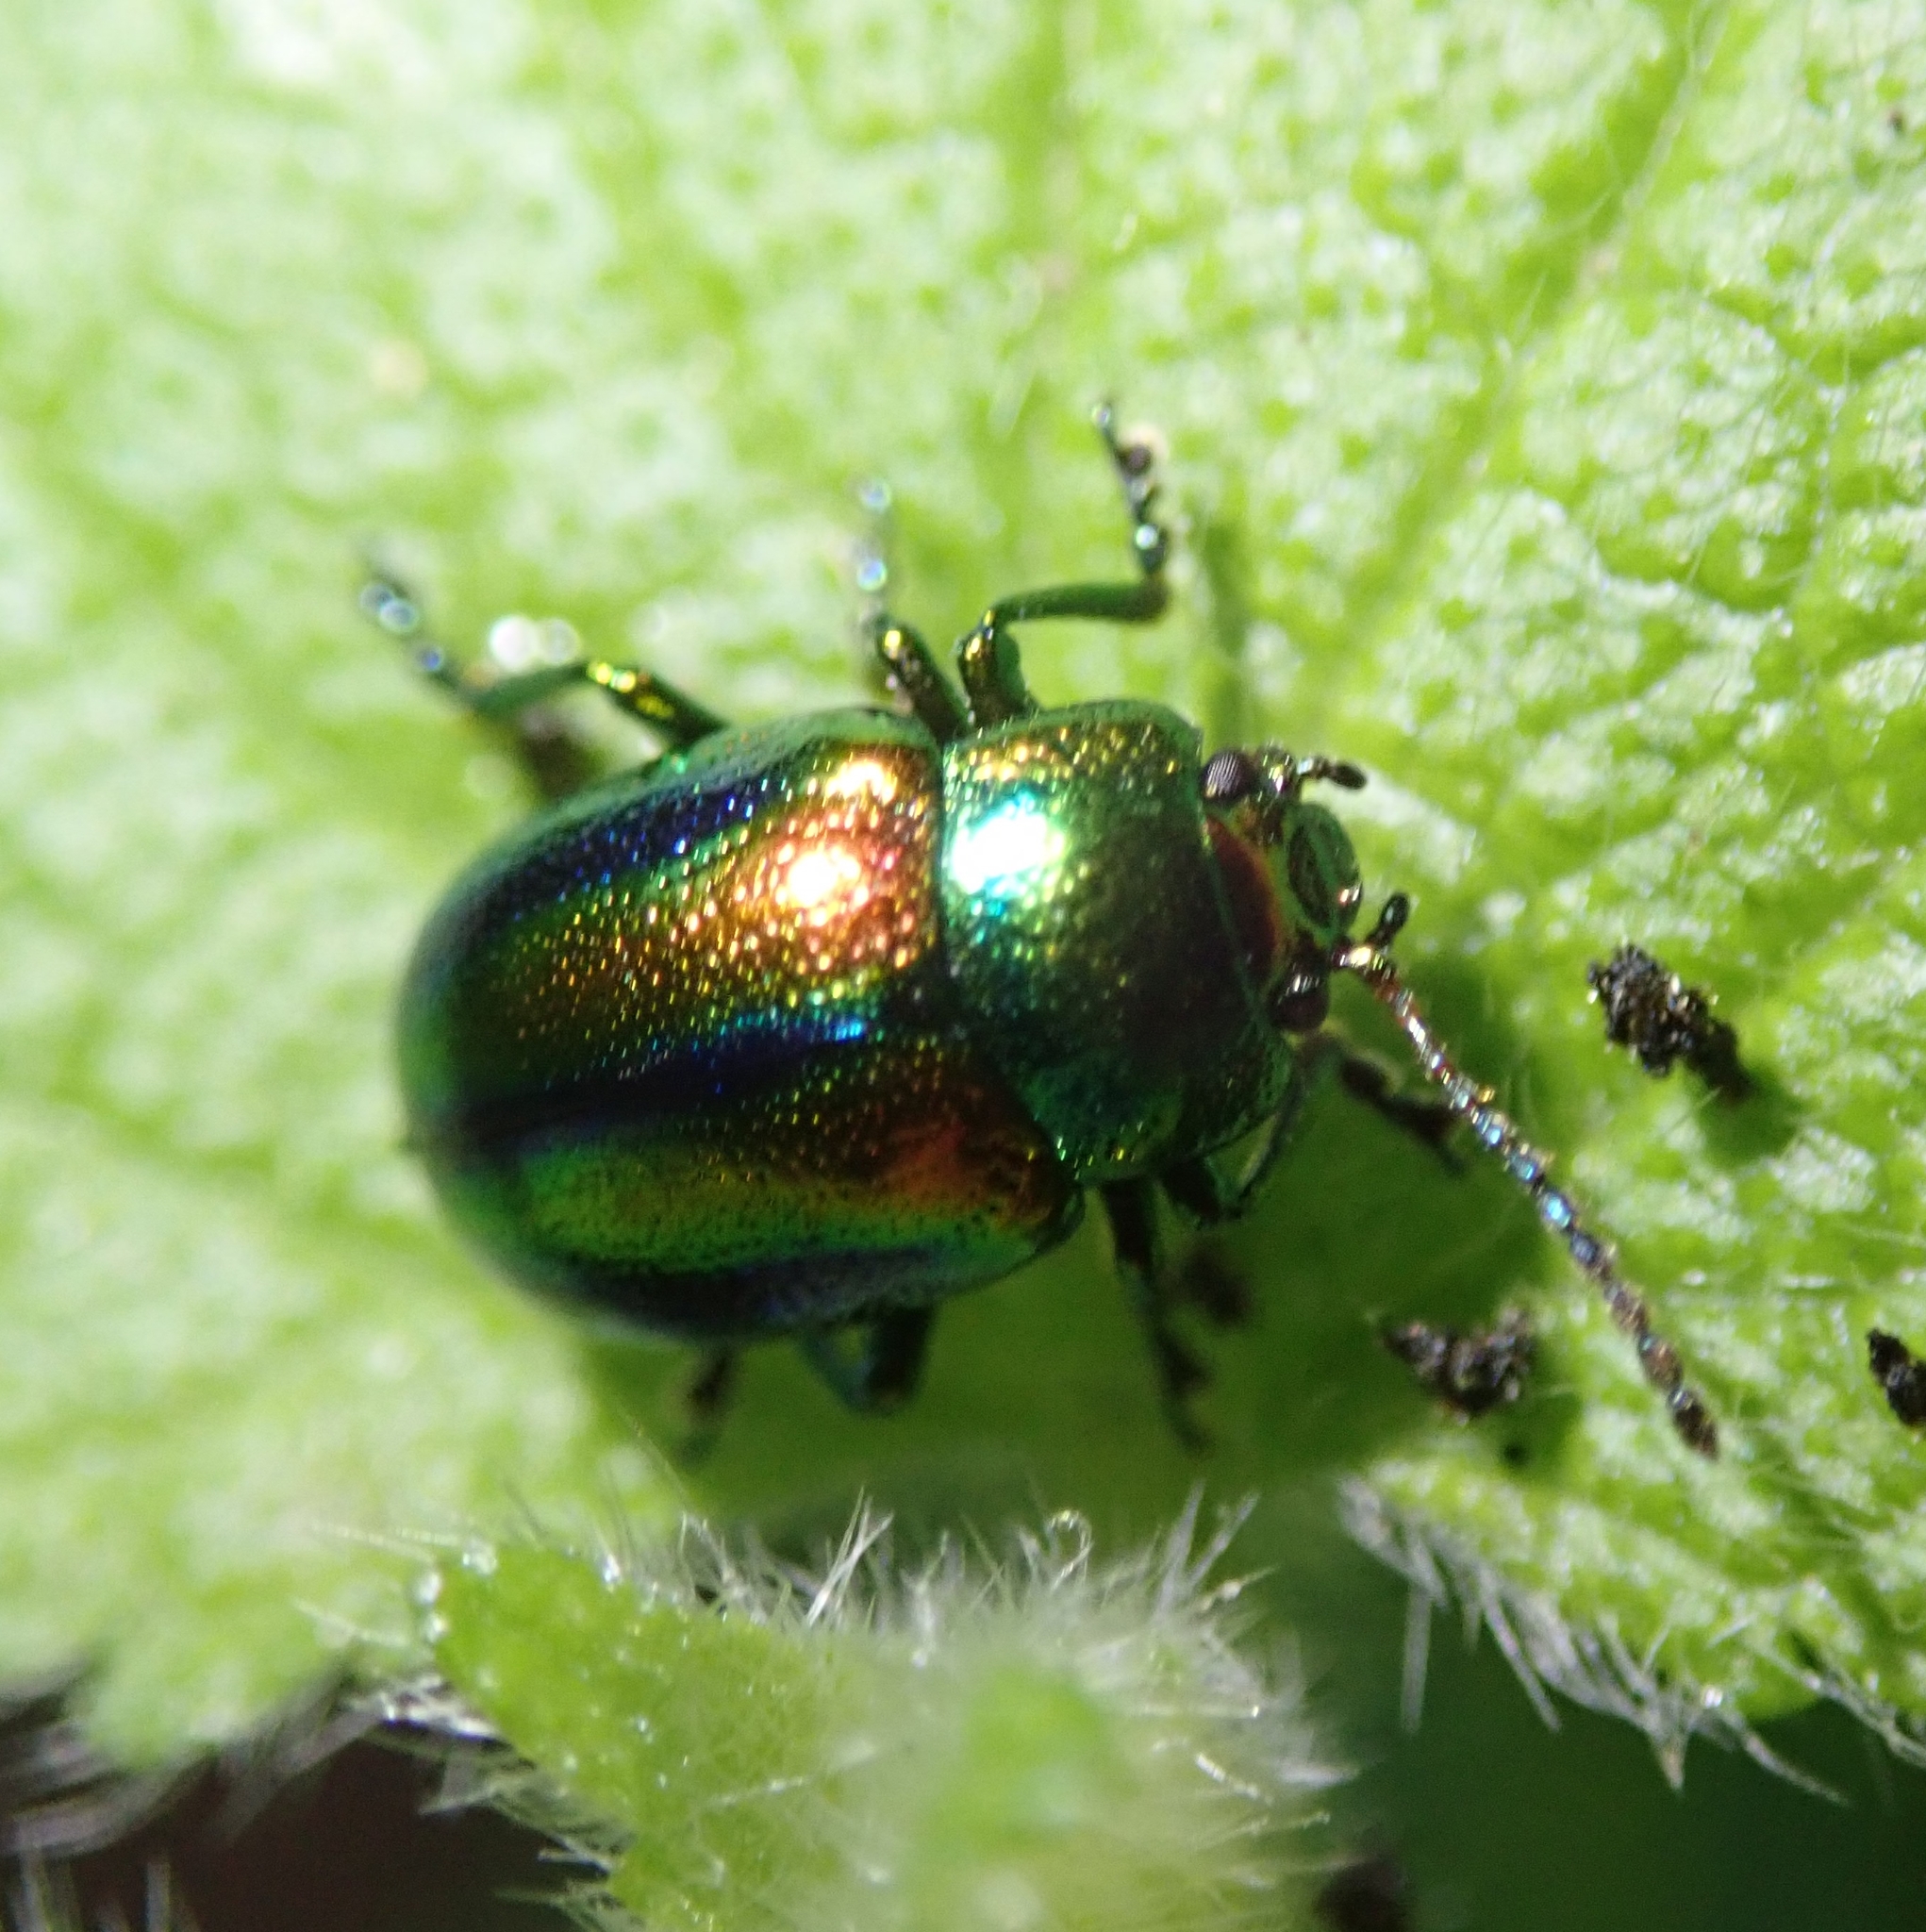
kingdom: Animalia
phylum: Arthropoda
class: Insecta
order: Coleoptera
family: Chrysomelidae
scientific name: Chrysomelidae
